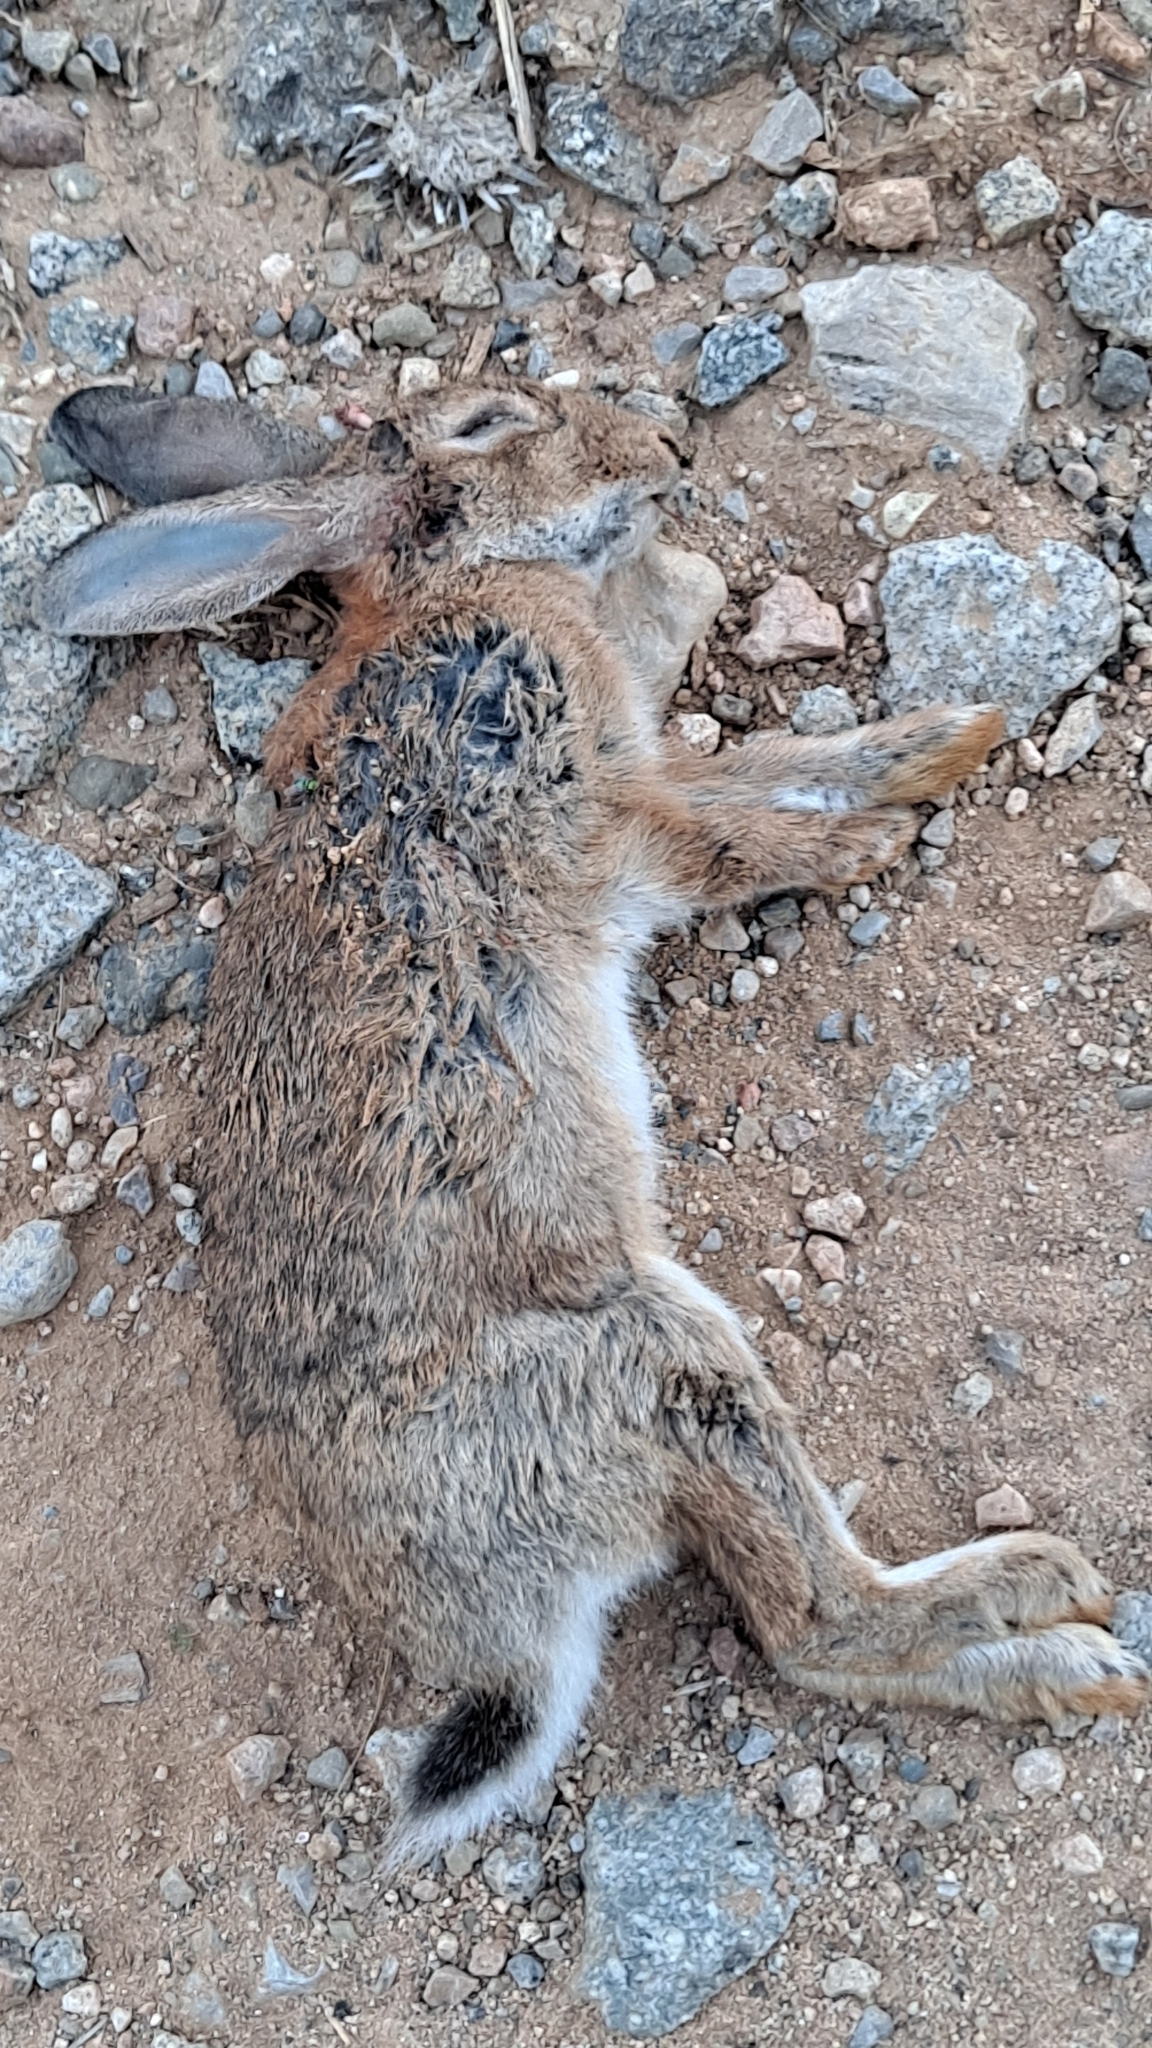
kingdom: Animalia
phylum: Chordata
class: Mammalia
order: Lagomorpha
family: Leporidae
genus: Oryctolagus
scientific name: Oryctolagus cuniculus
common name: European rabbit
